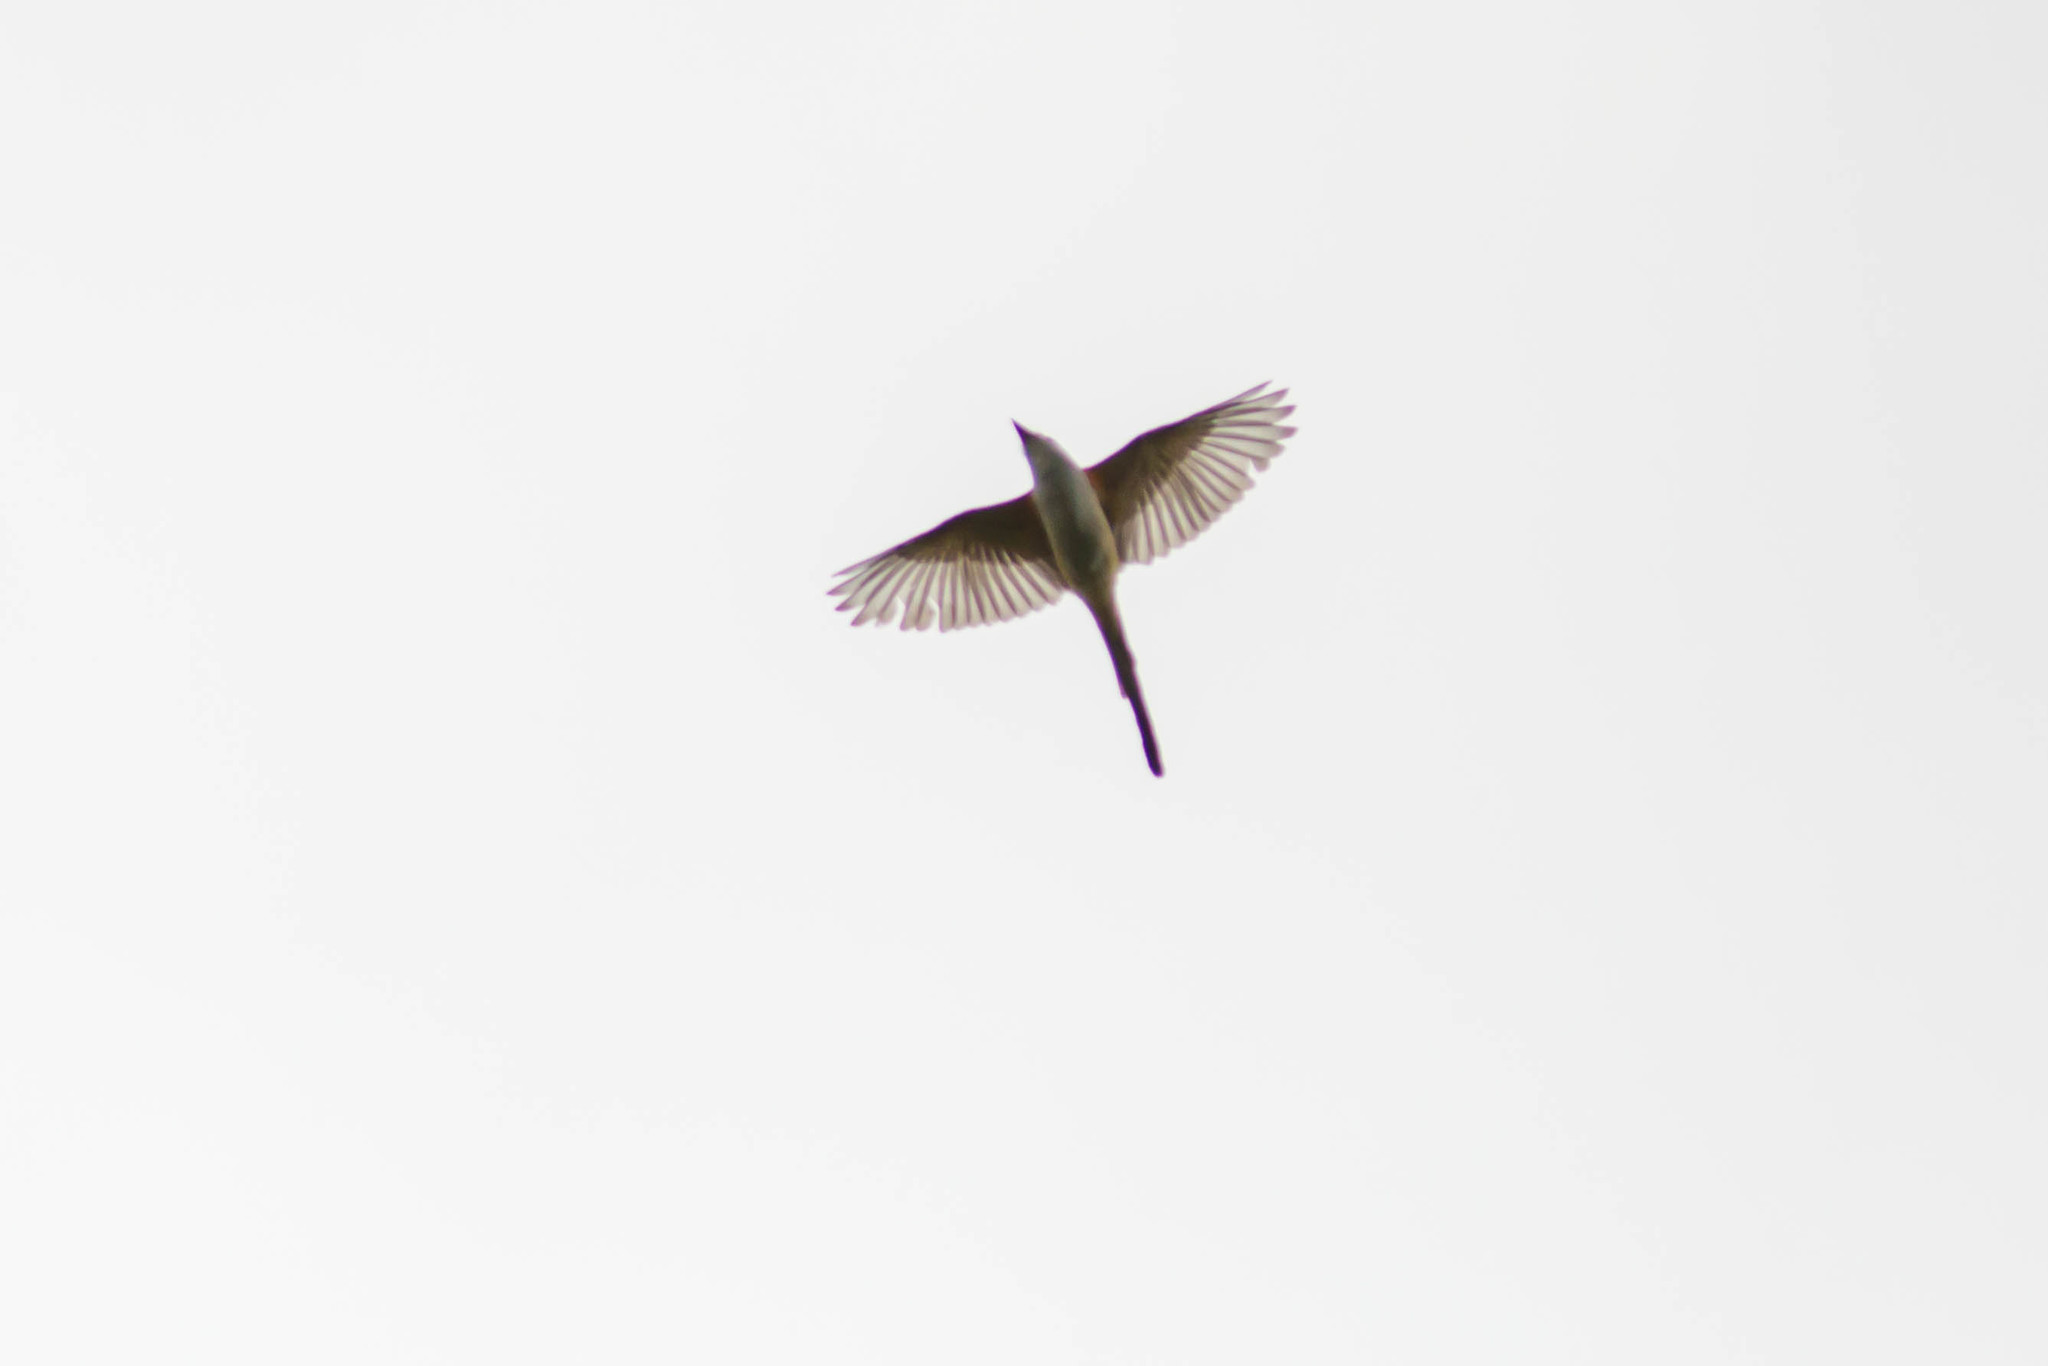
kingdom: Animalia
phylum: Chordata
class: Aves
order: Passeriformes
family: Tyrannidae
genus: Tyrannus
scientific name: Tyrannus forficatus
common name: Scissor-tailed flycatcher
